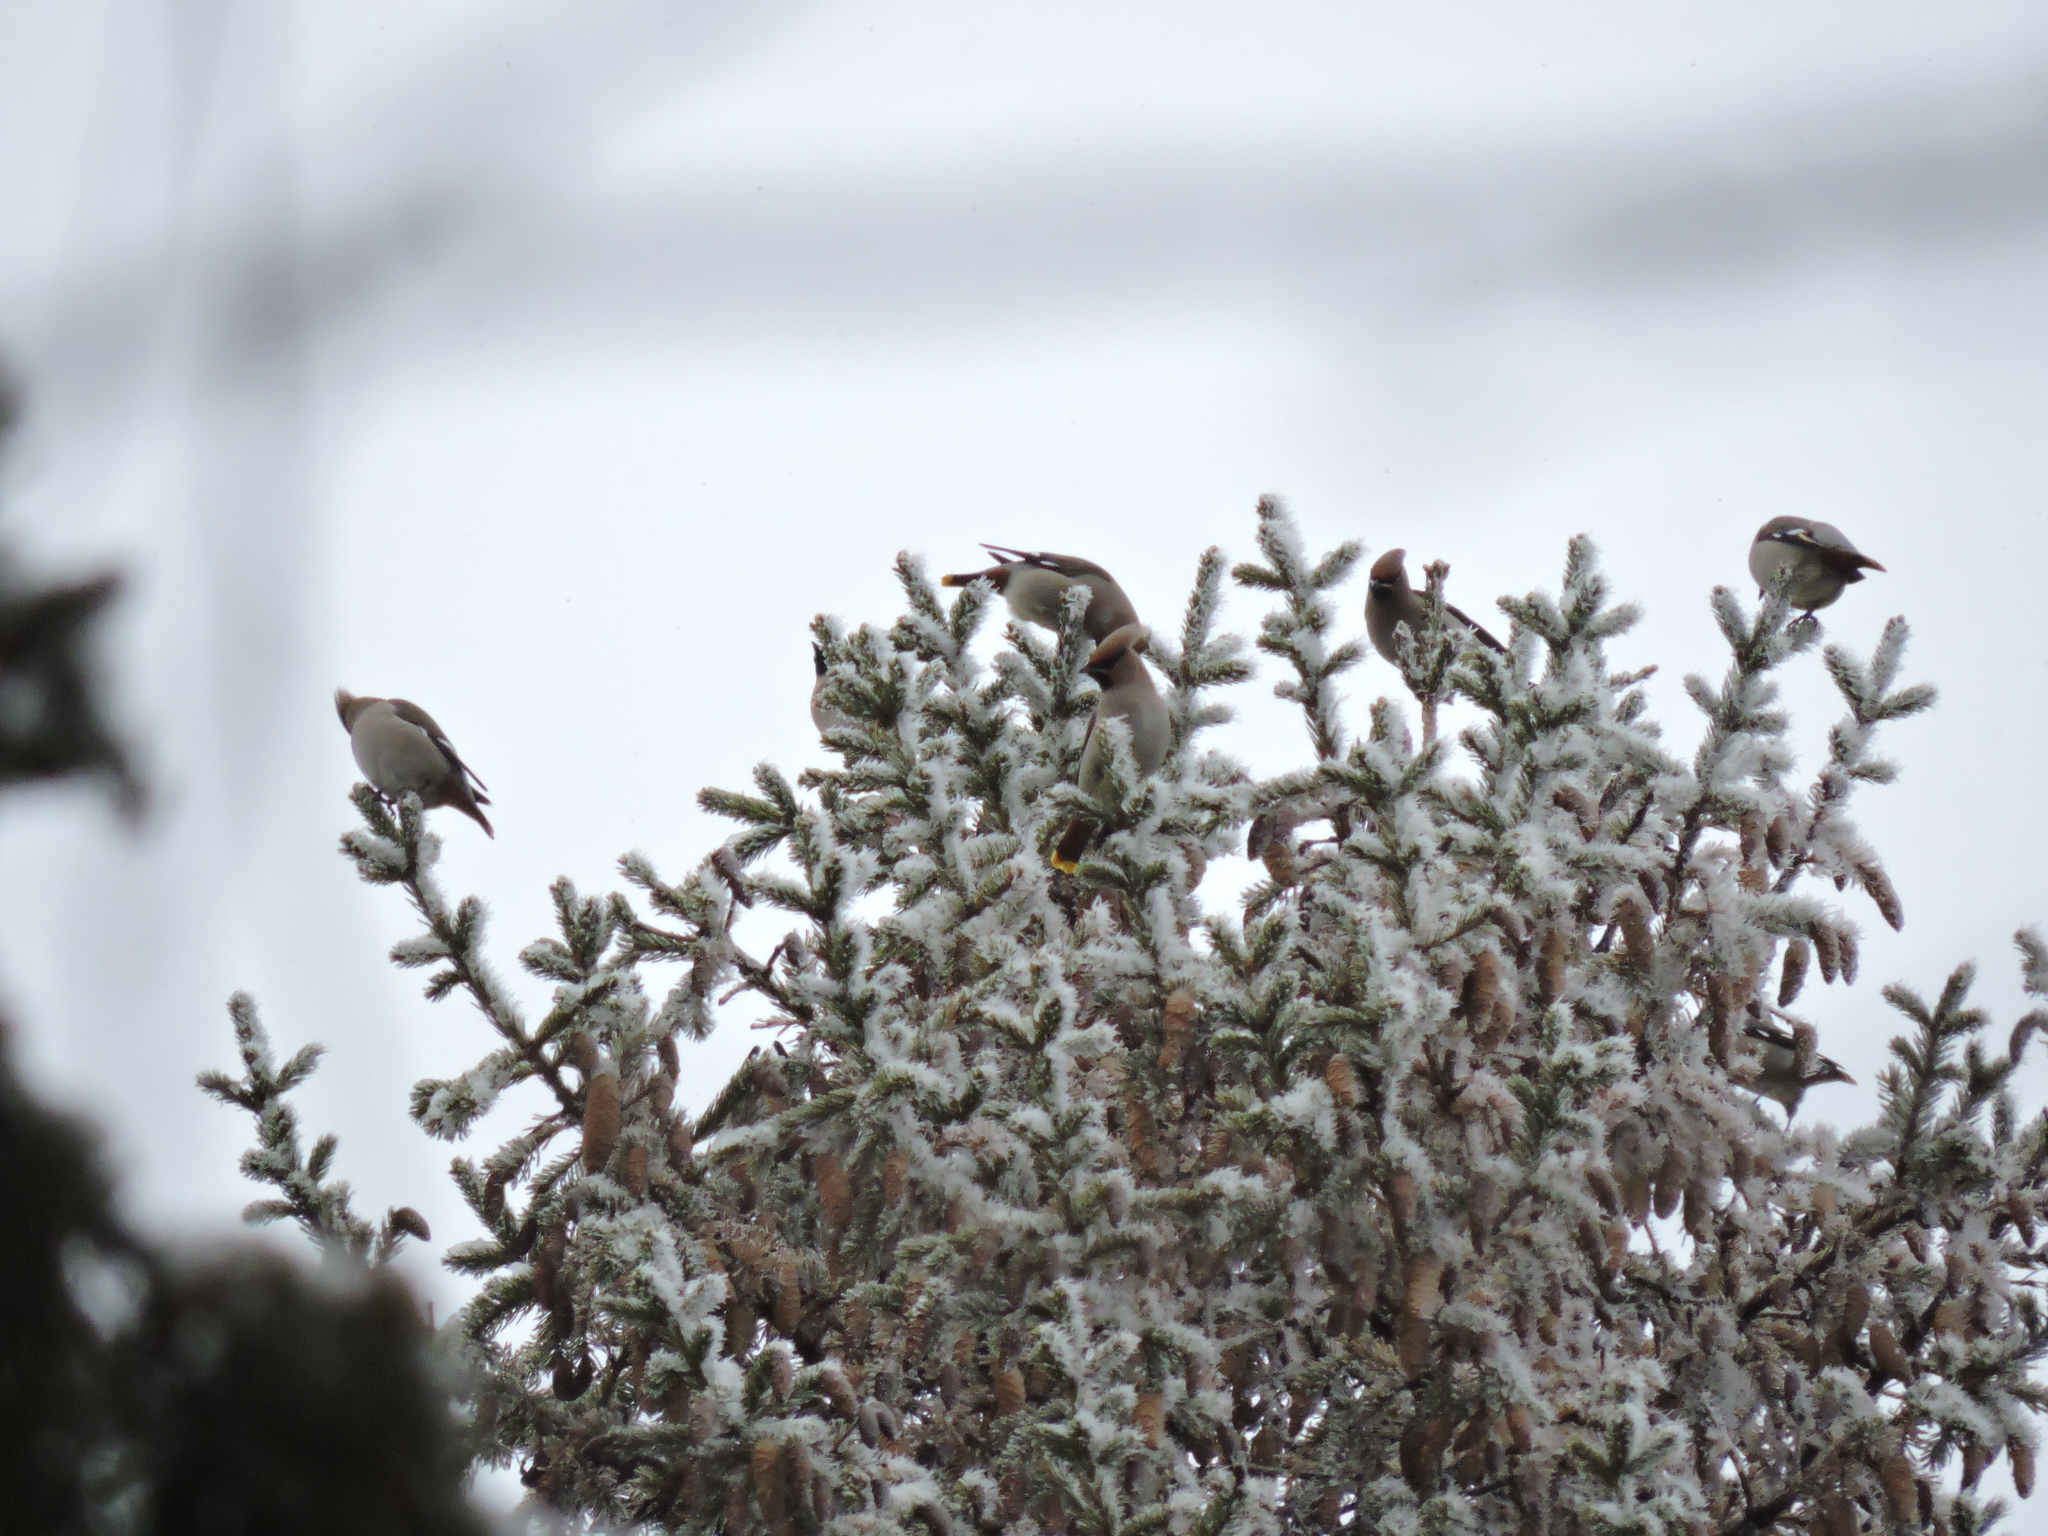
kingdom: Animalia
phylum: Chordata
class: Aves
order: Passeriformes
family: Bombycillidae
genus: Bombycilla
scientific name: Bombycilla garrulus
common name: Bohemian waxwing
